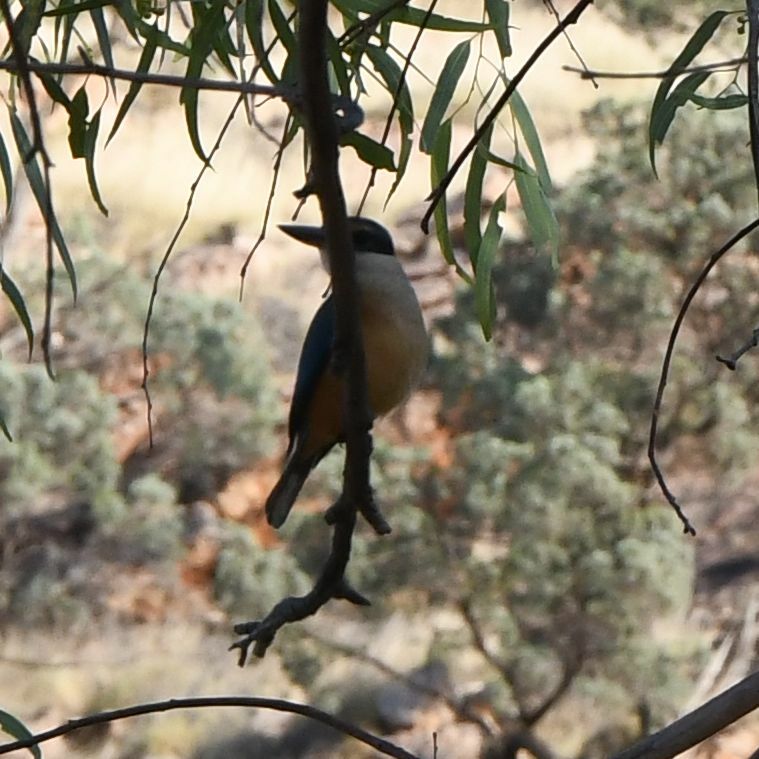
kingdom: Animalia
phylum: Chordata
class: Aves
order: Coraciiformes
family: Alcedinidae
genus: Todiramphus
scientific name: Todiramphus sanctus
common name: Sacred kingfisher
